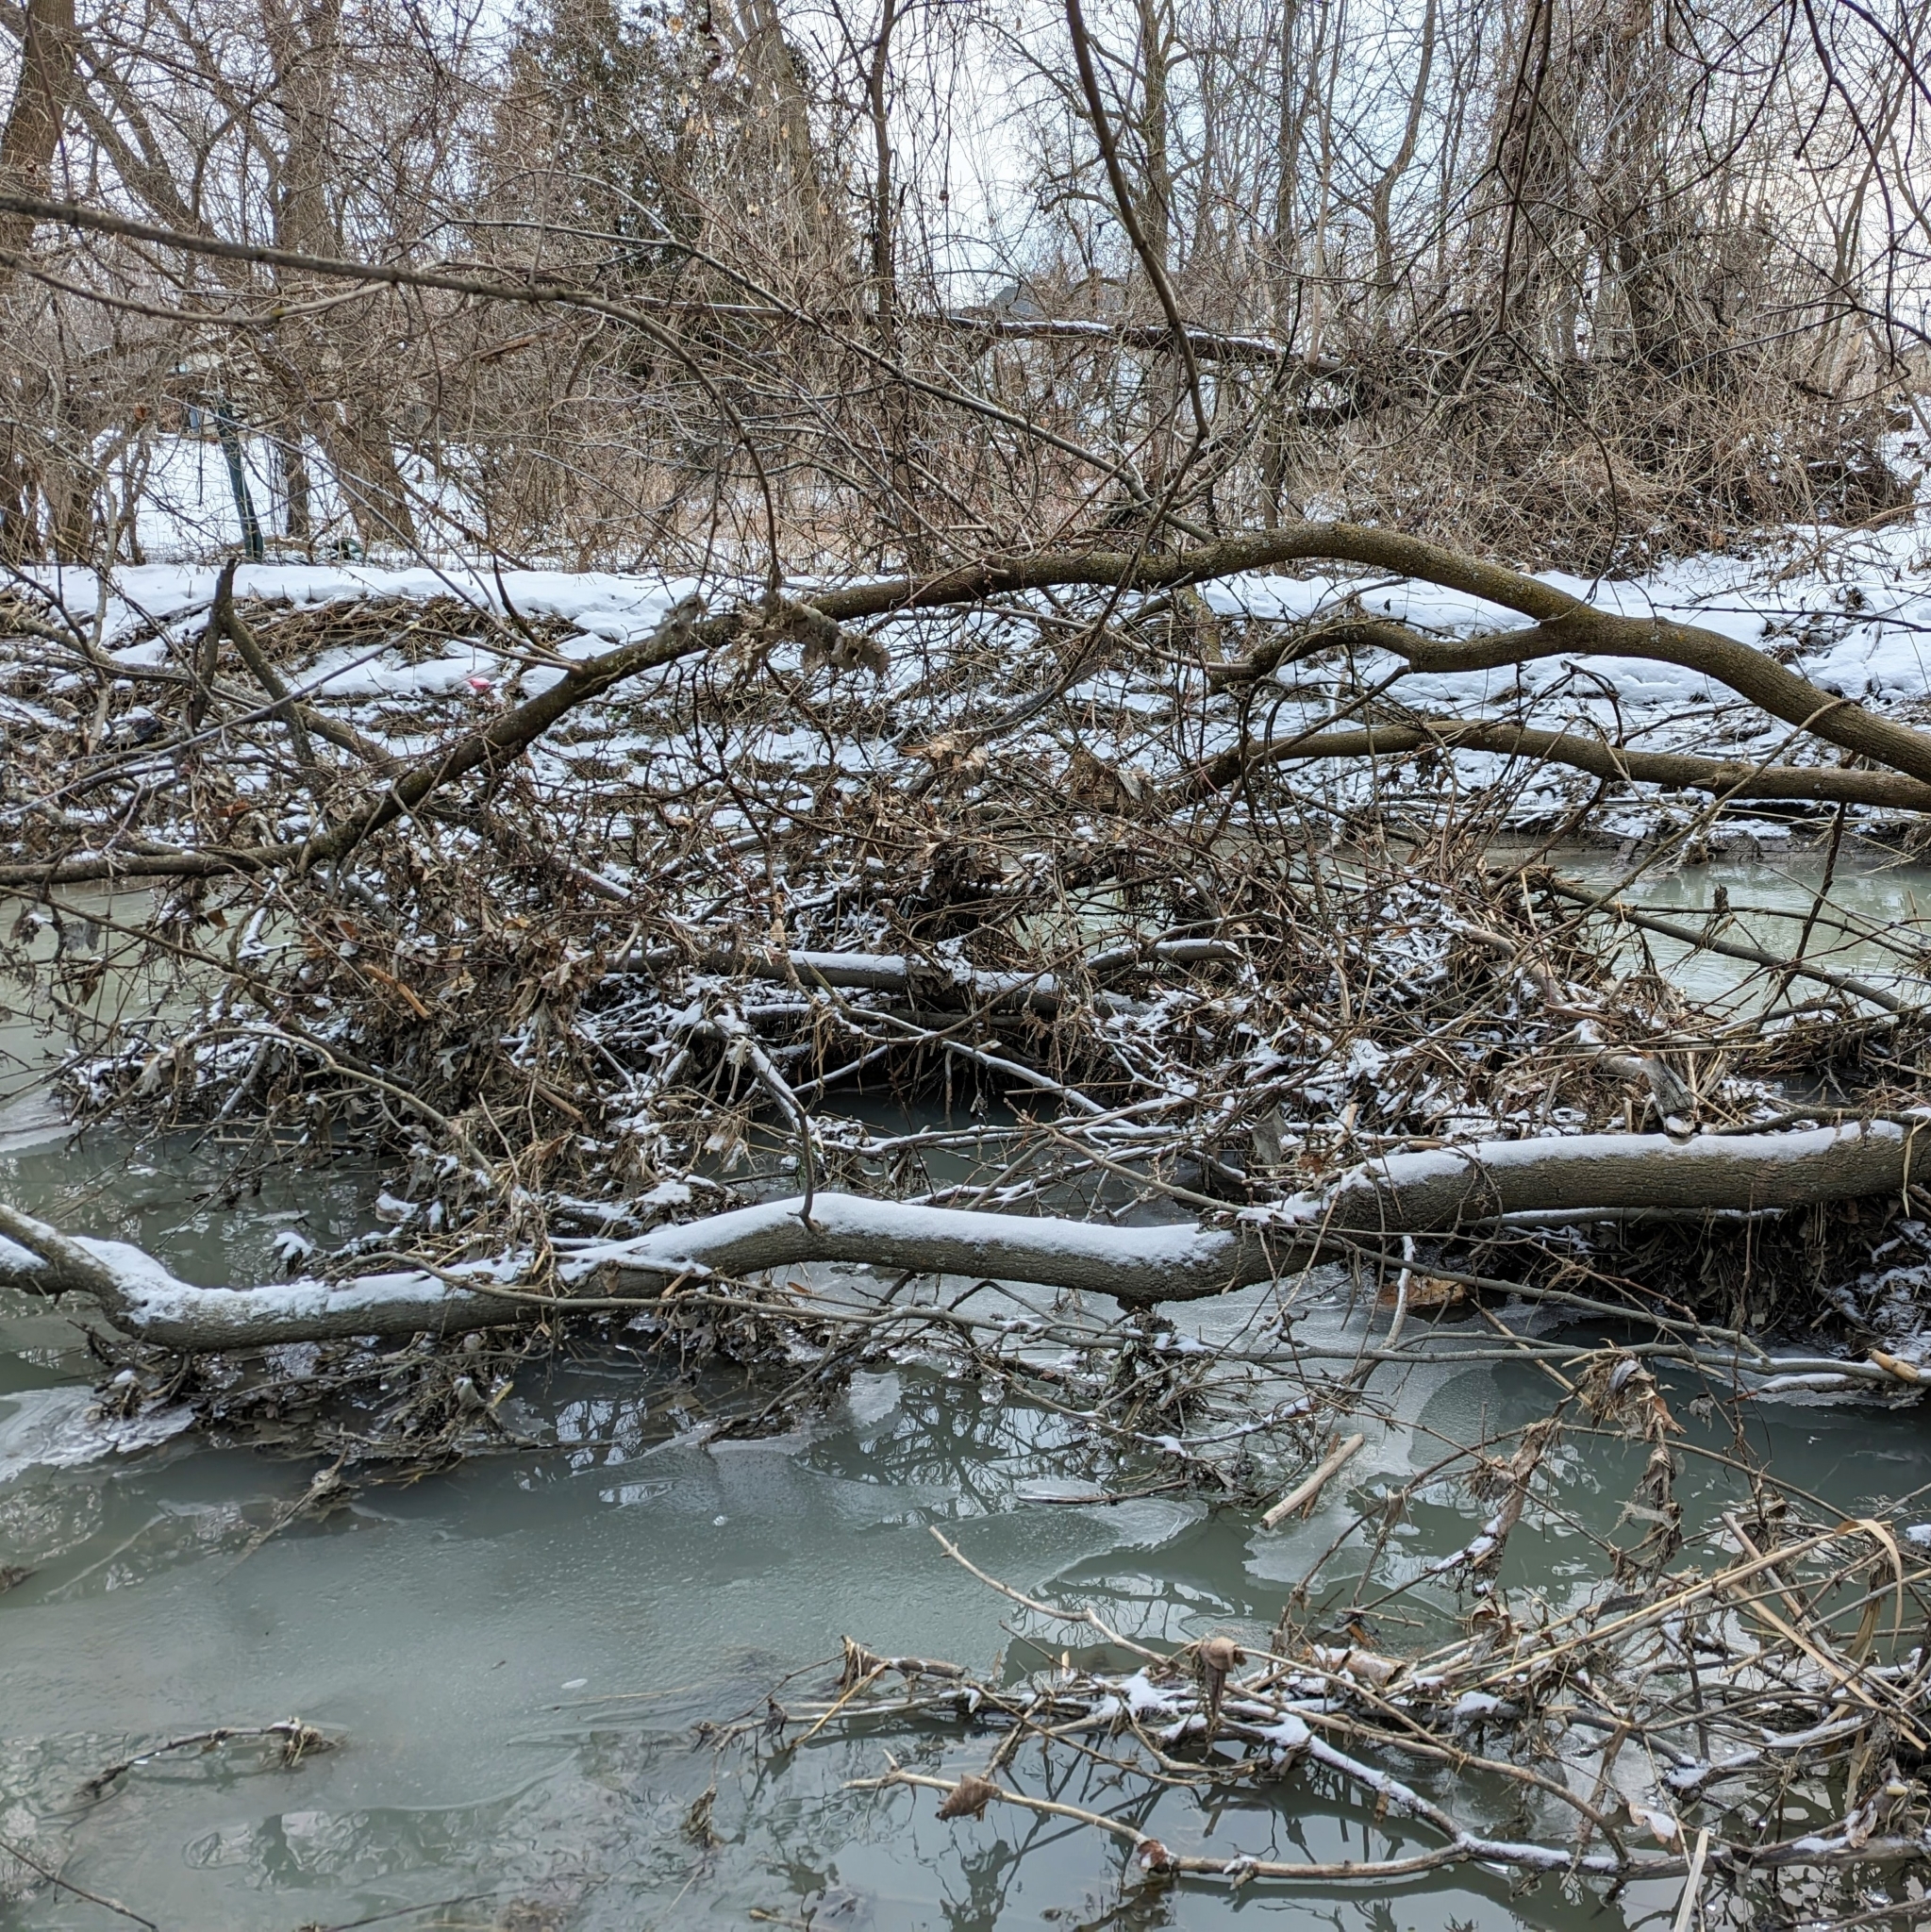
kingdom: Animalia
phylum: Chordata
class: Mammalia
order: Rodentia
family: Castoridae
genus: Castor
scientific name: Castor canadensis
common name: American beaver
